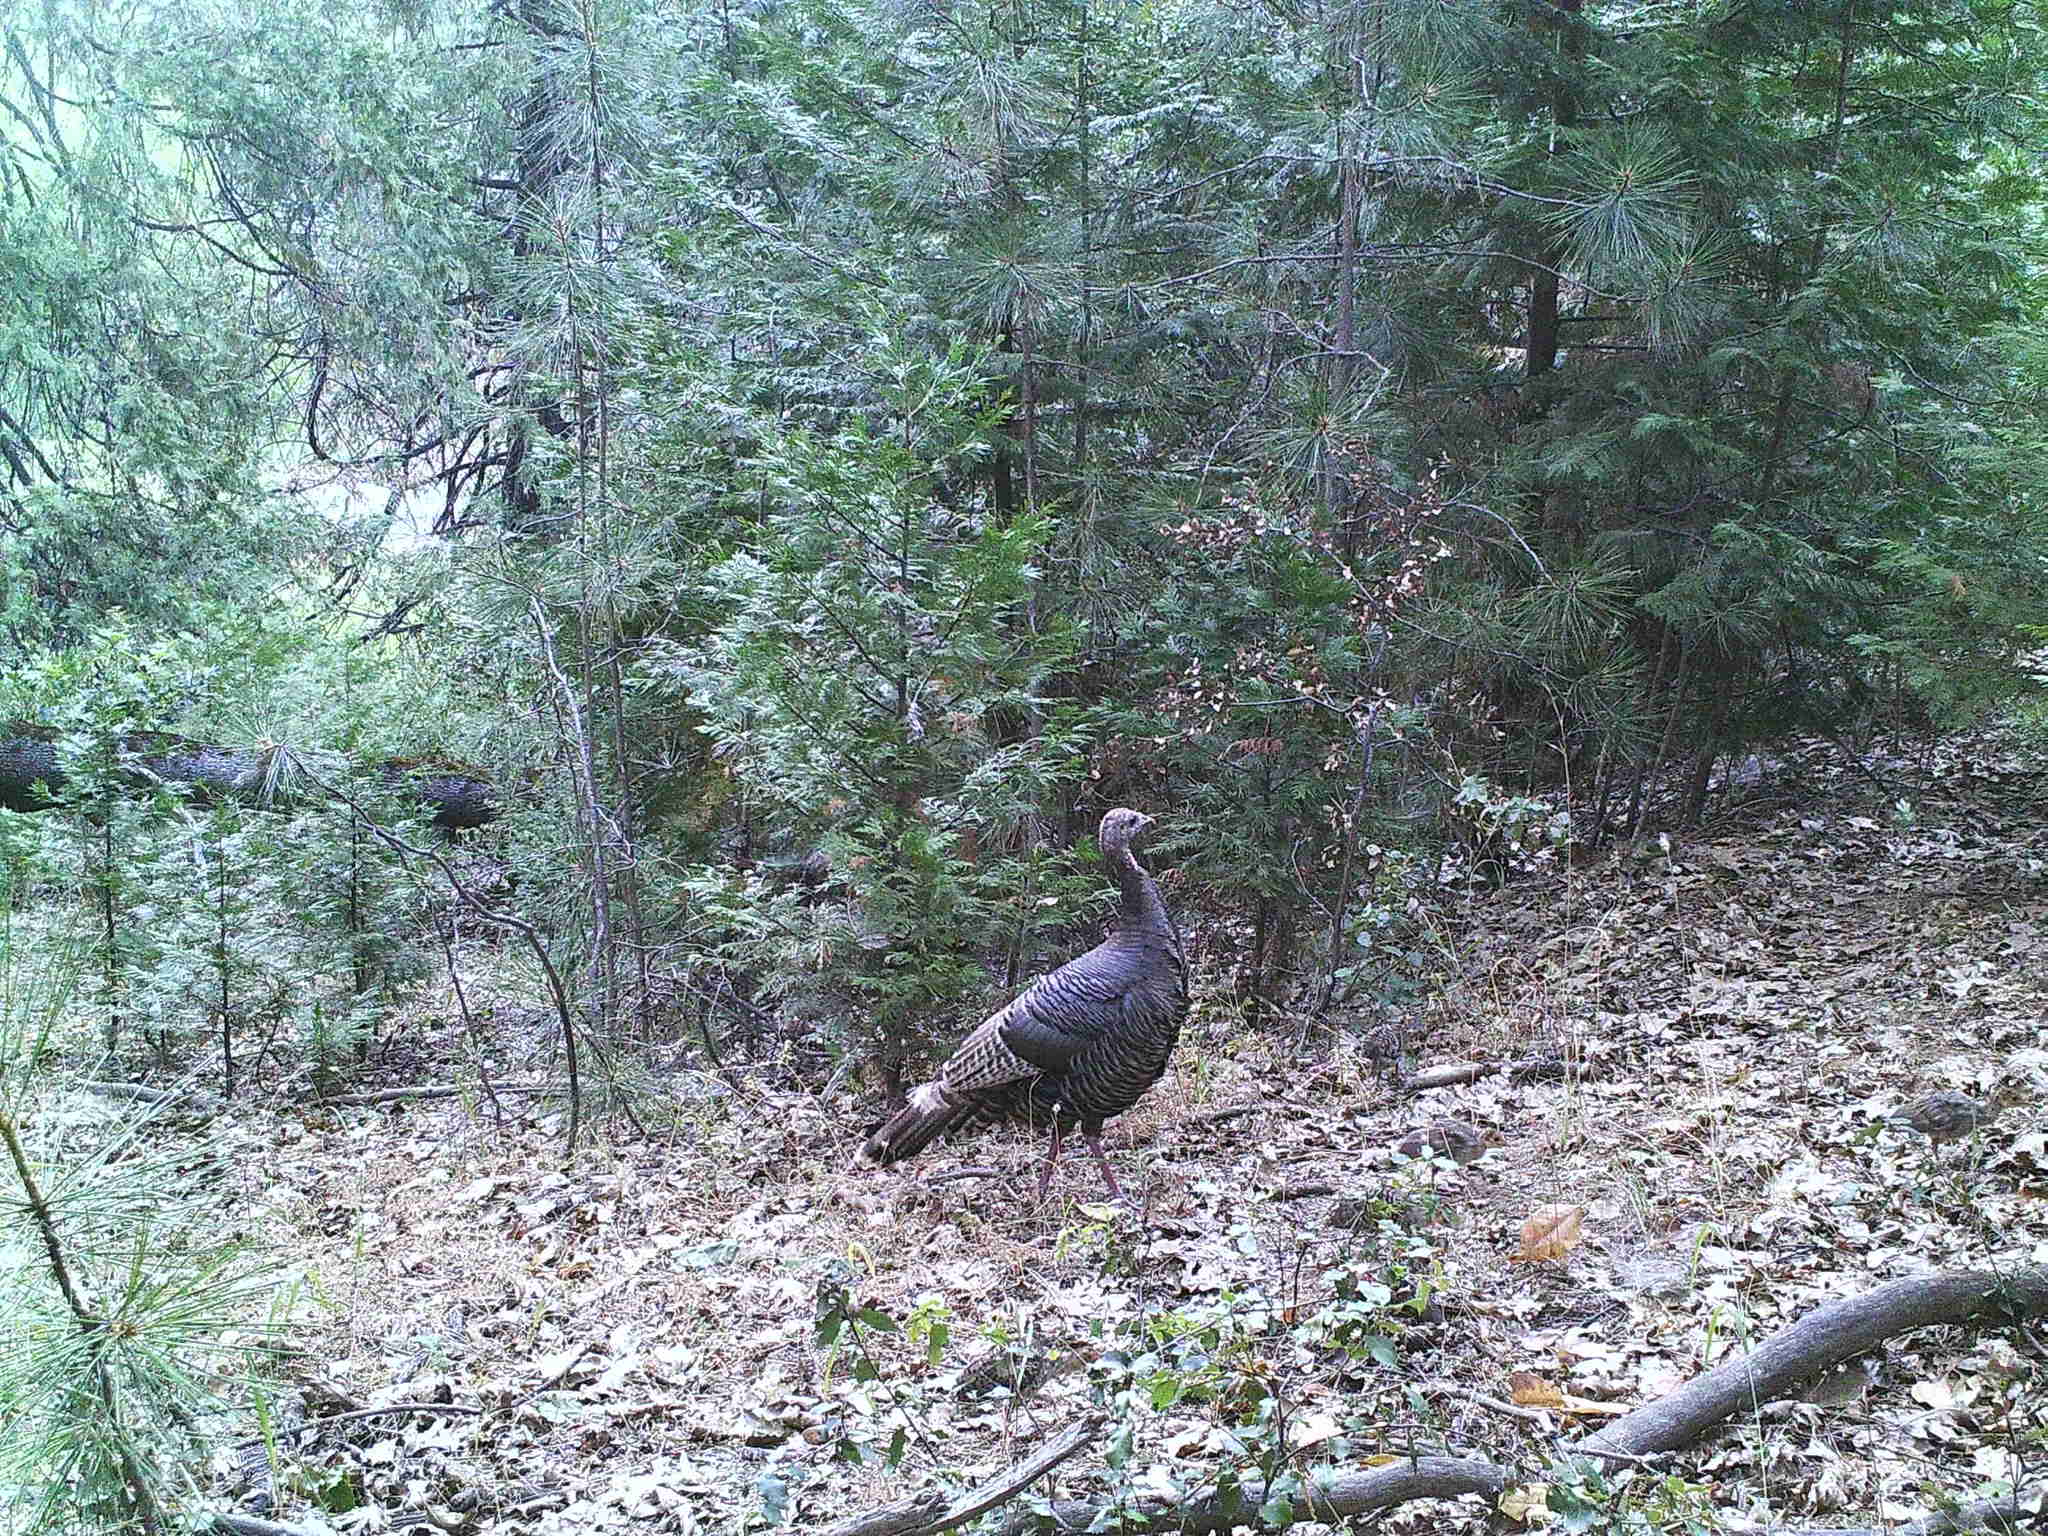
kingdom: Animalia
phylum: Chordata
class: Aves
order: Galliformes
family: Phasianidae
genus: Meleagris
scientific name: Meleagris gallopavo
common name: Wild turkey
